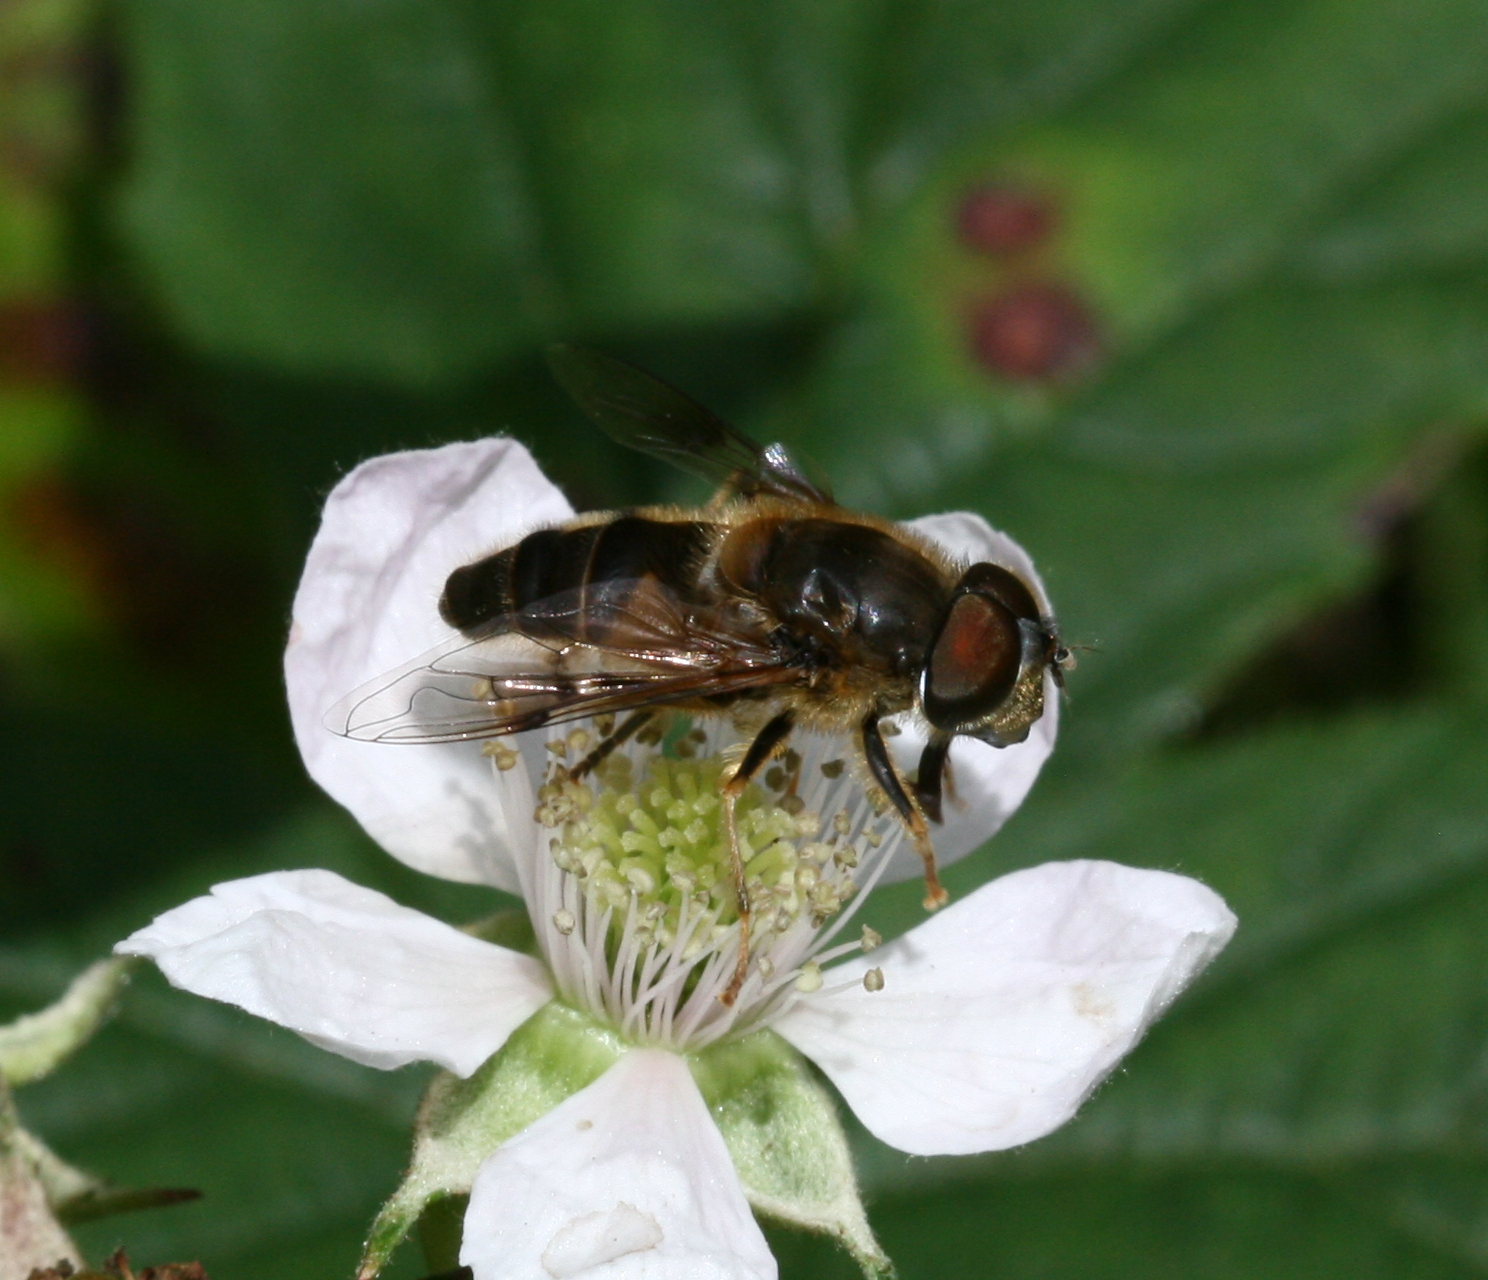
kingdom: Animalia
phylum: Arthropoda
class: Insecta
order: Diptera
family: Syrphidae
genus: Eristalis
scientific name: Eristalis pertinax
